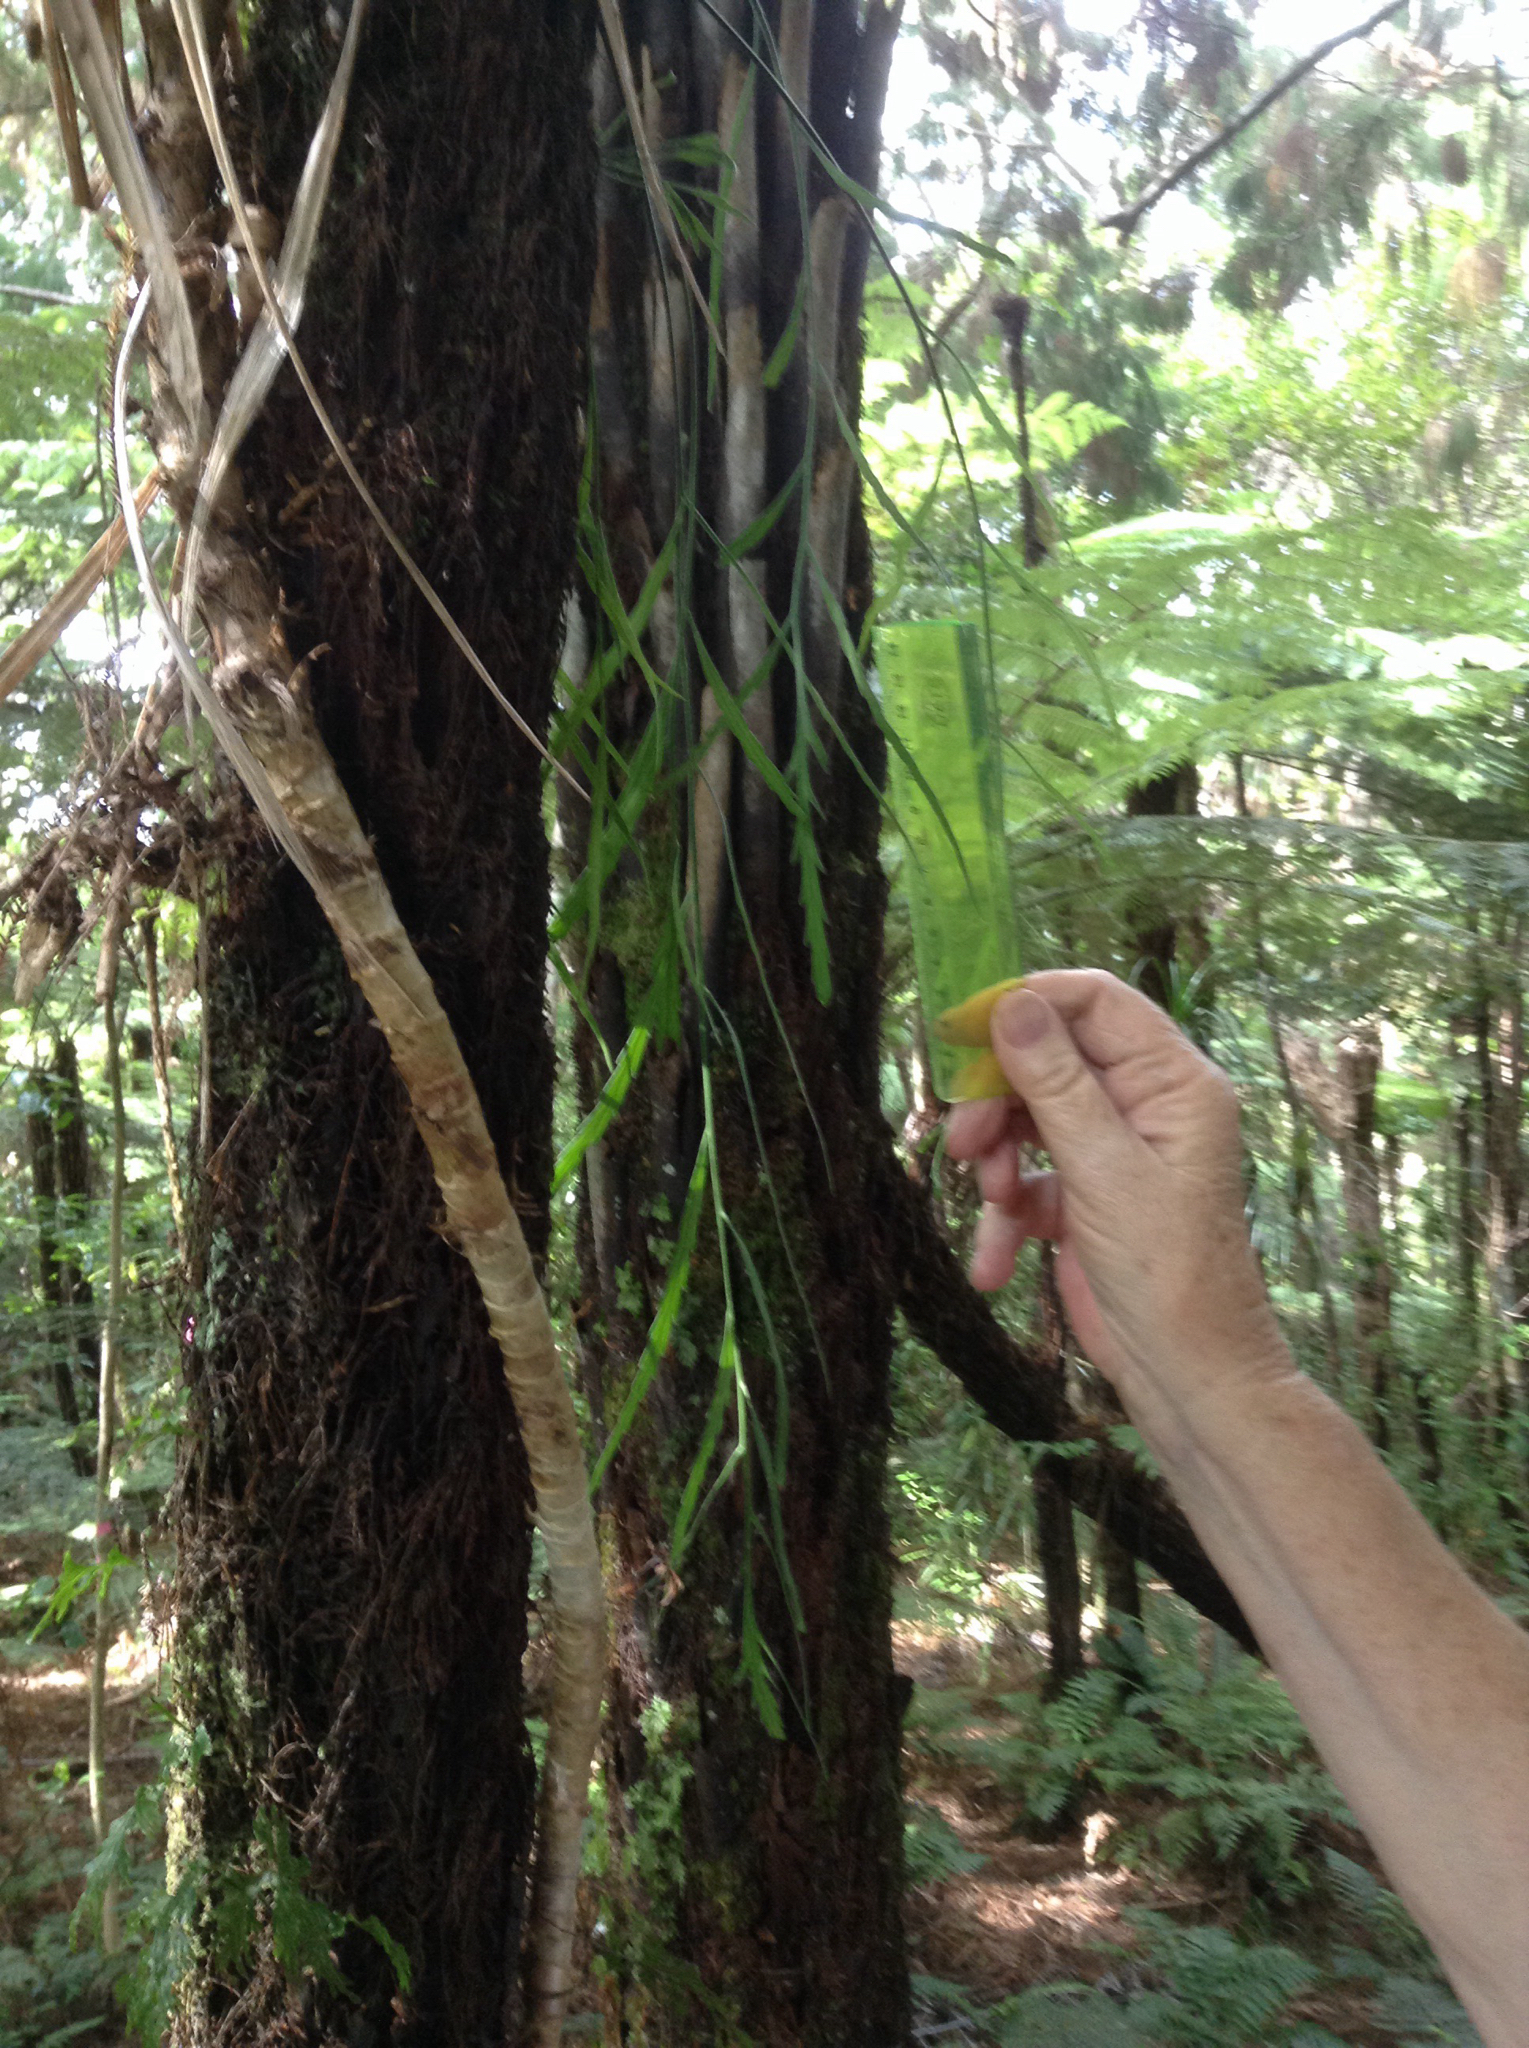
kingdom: Plantae
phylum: Tracheophyta
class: Polypodiopsida
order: Polypodiales
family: Aspleniaceae
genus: Asplenium
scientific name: Asplenium flaccidum
